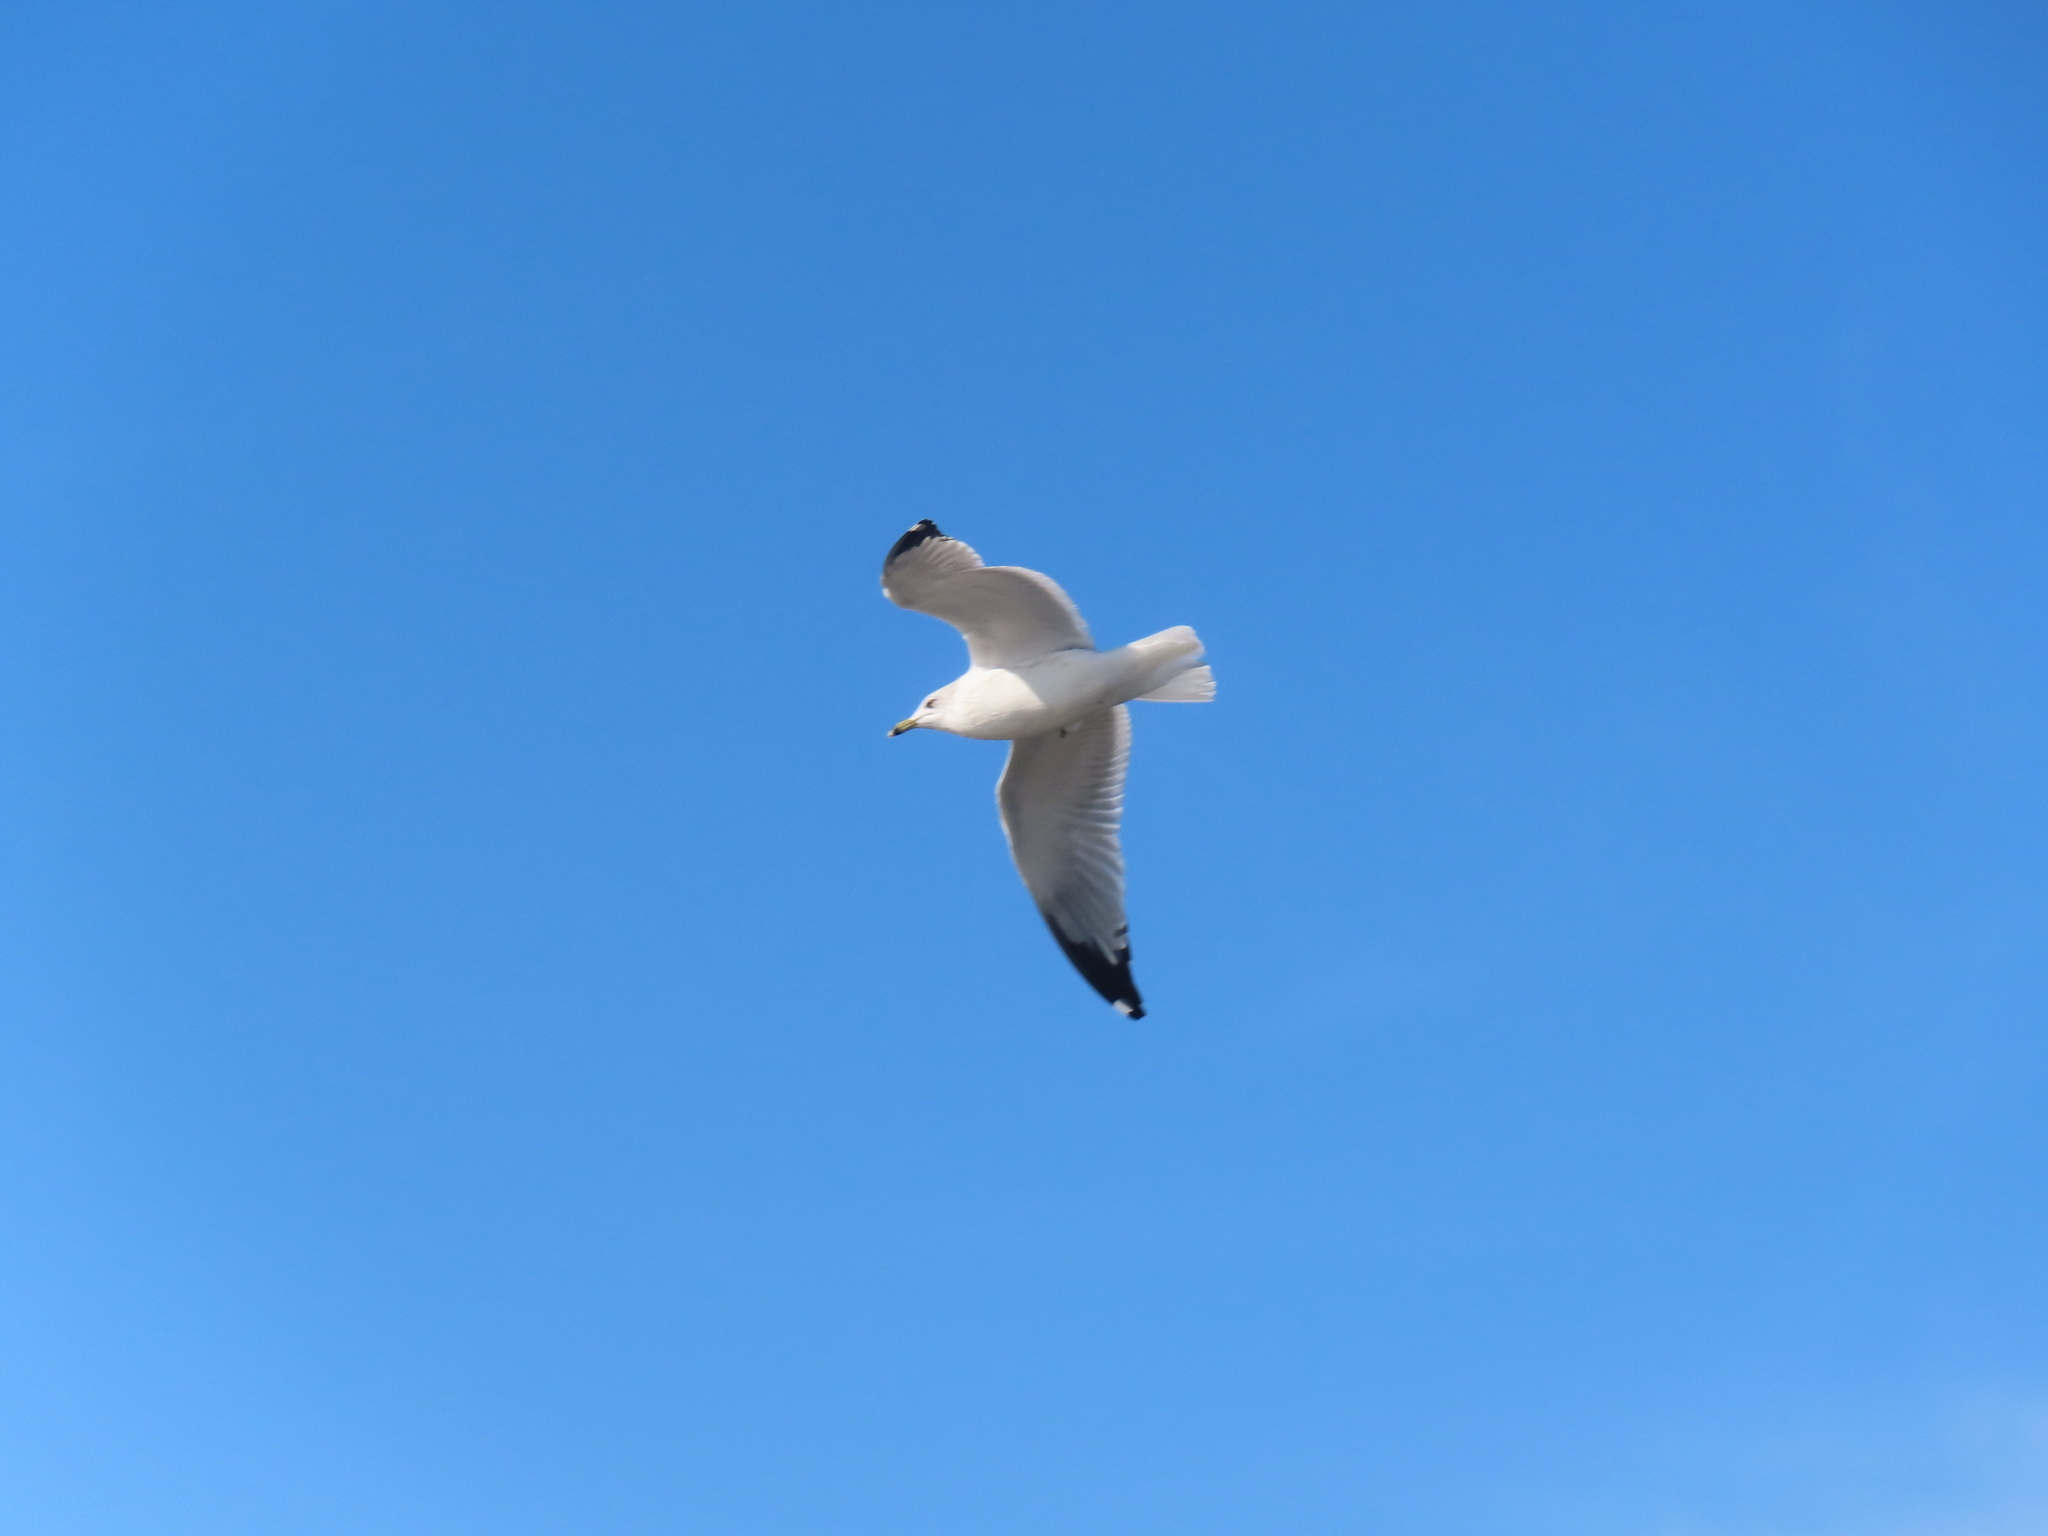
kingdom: Animalia
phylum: Chordata
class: Aves
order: Charadriiformes
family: Laridae
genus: Larus
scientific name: Larus delawarensis
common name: Ring-billed gull
